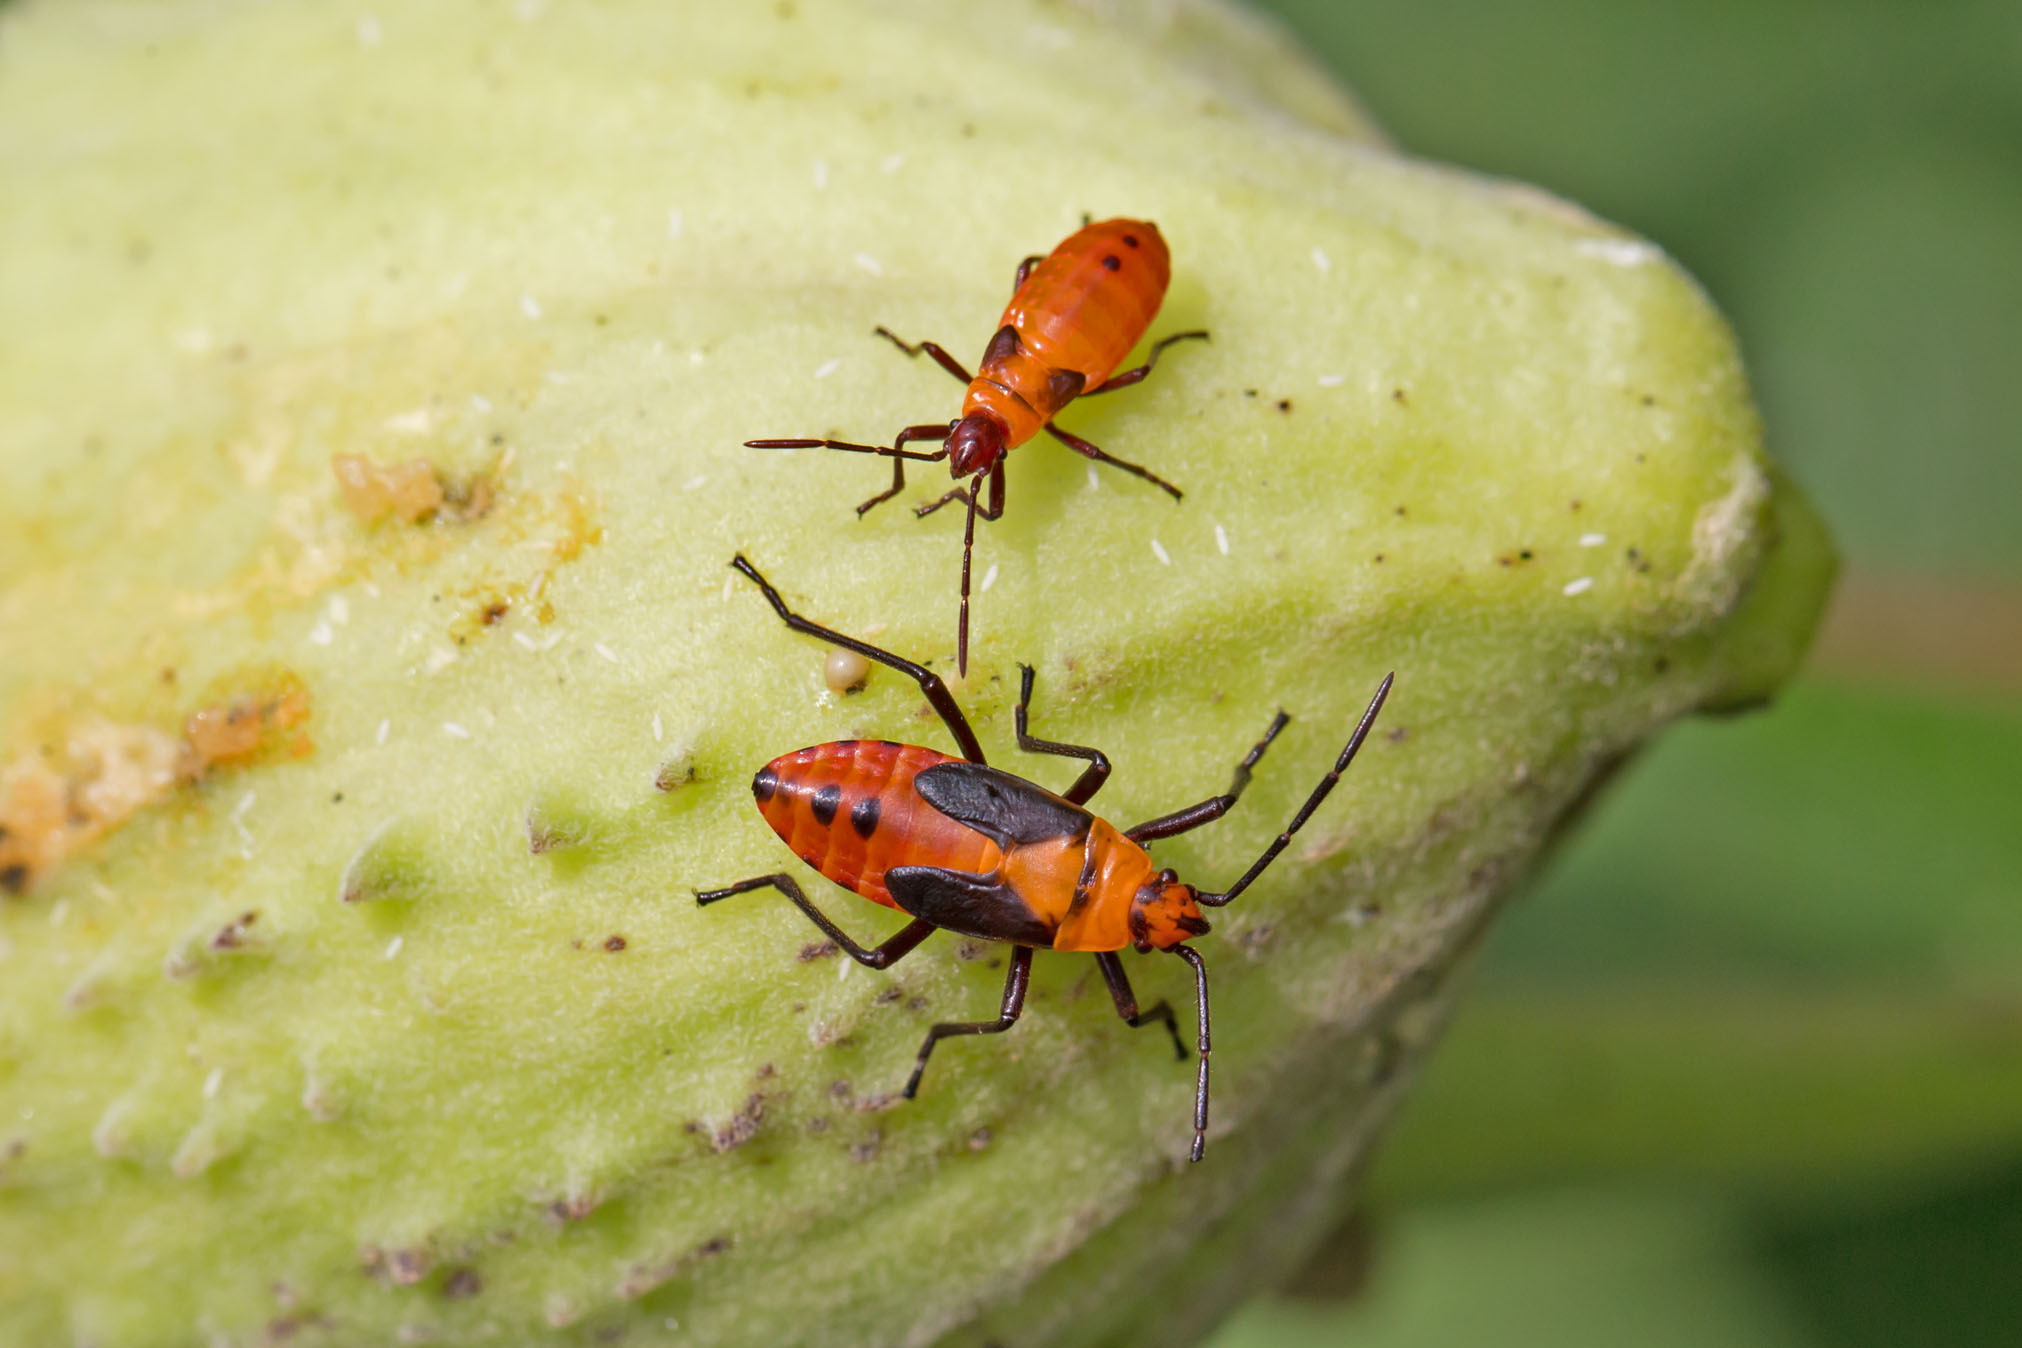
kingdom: Animalia
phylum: Arthropoda
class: Insecta
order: Hemiptera
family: Lygaeidae
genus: Oncopeltus
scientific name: Oncopeltus fasciatus
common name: Large milkweed bug
